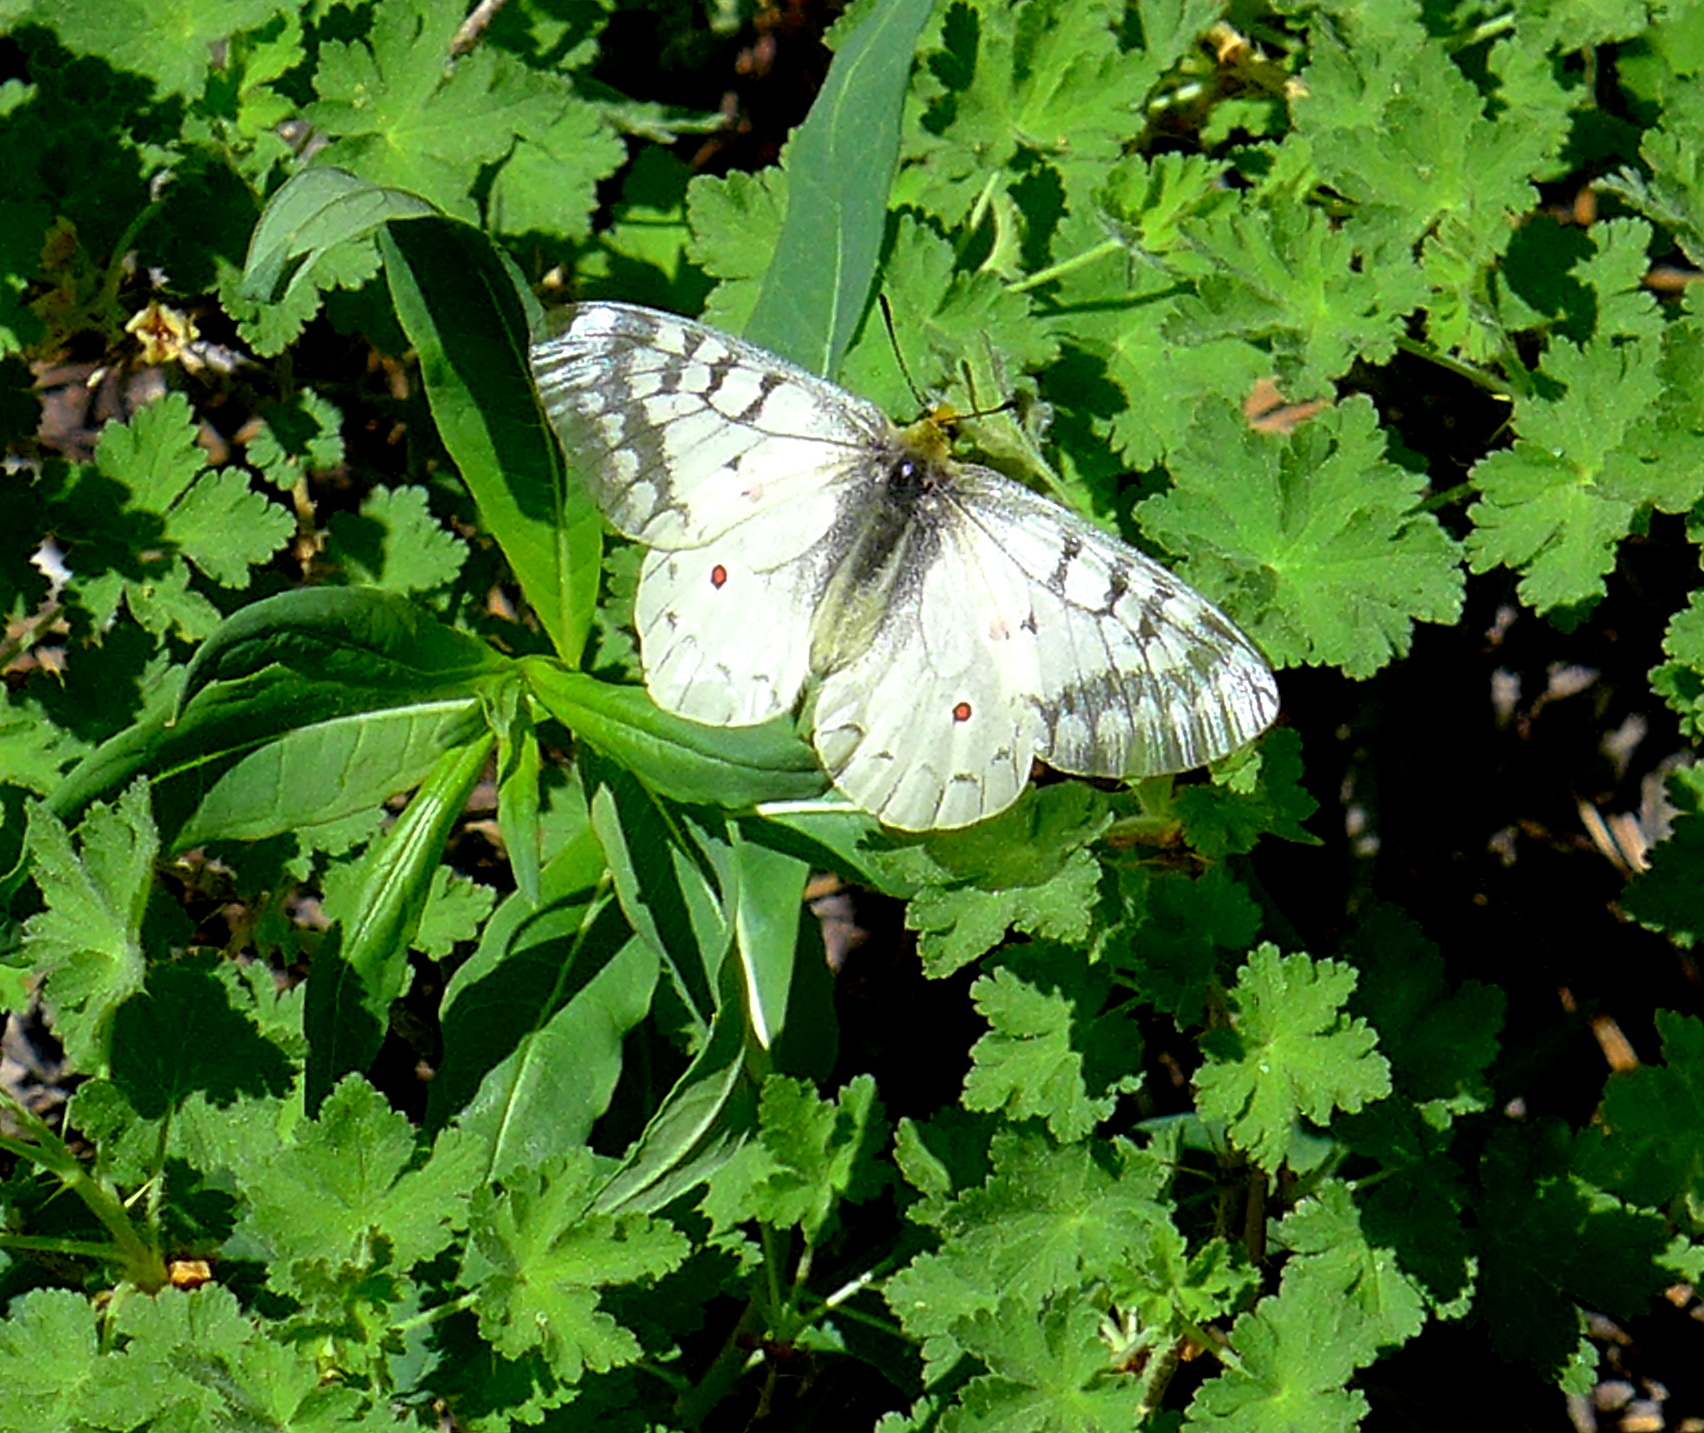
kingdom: Animalia
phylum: Arthropoda
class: Insecta
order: Lepidoptera
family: Papilionidae
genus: Parnassius
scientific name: Parnassius clodius
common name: American apollo
